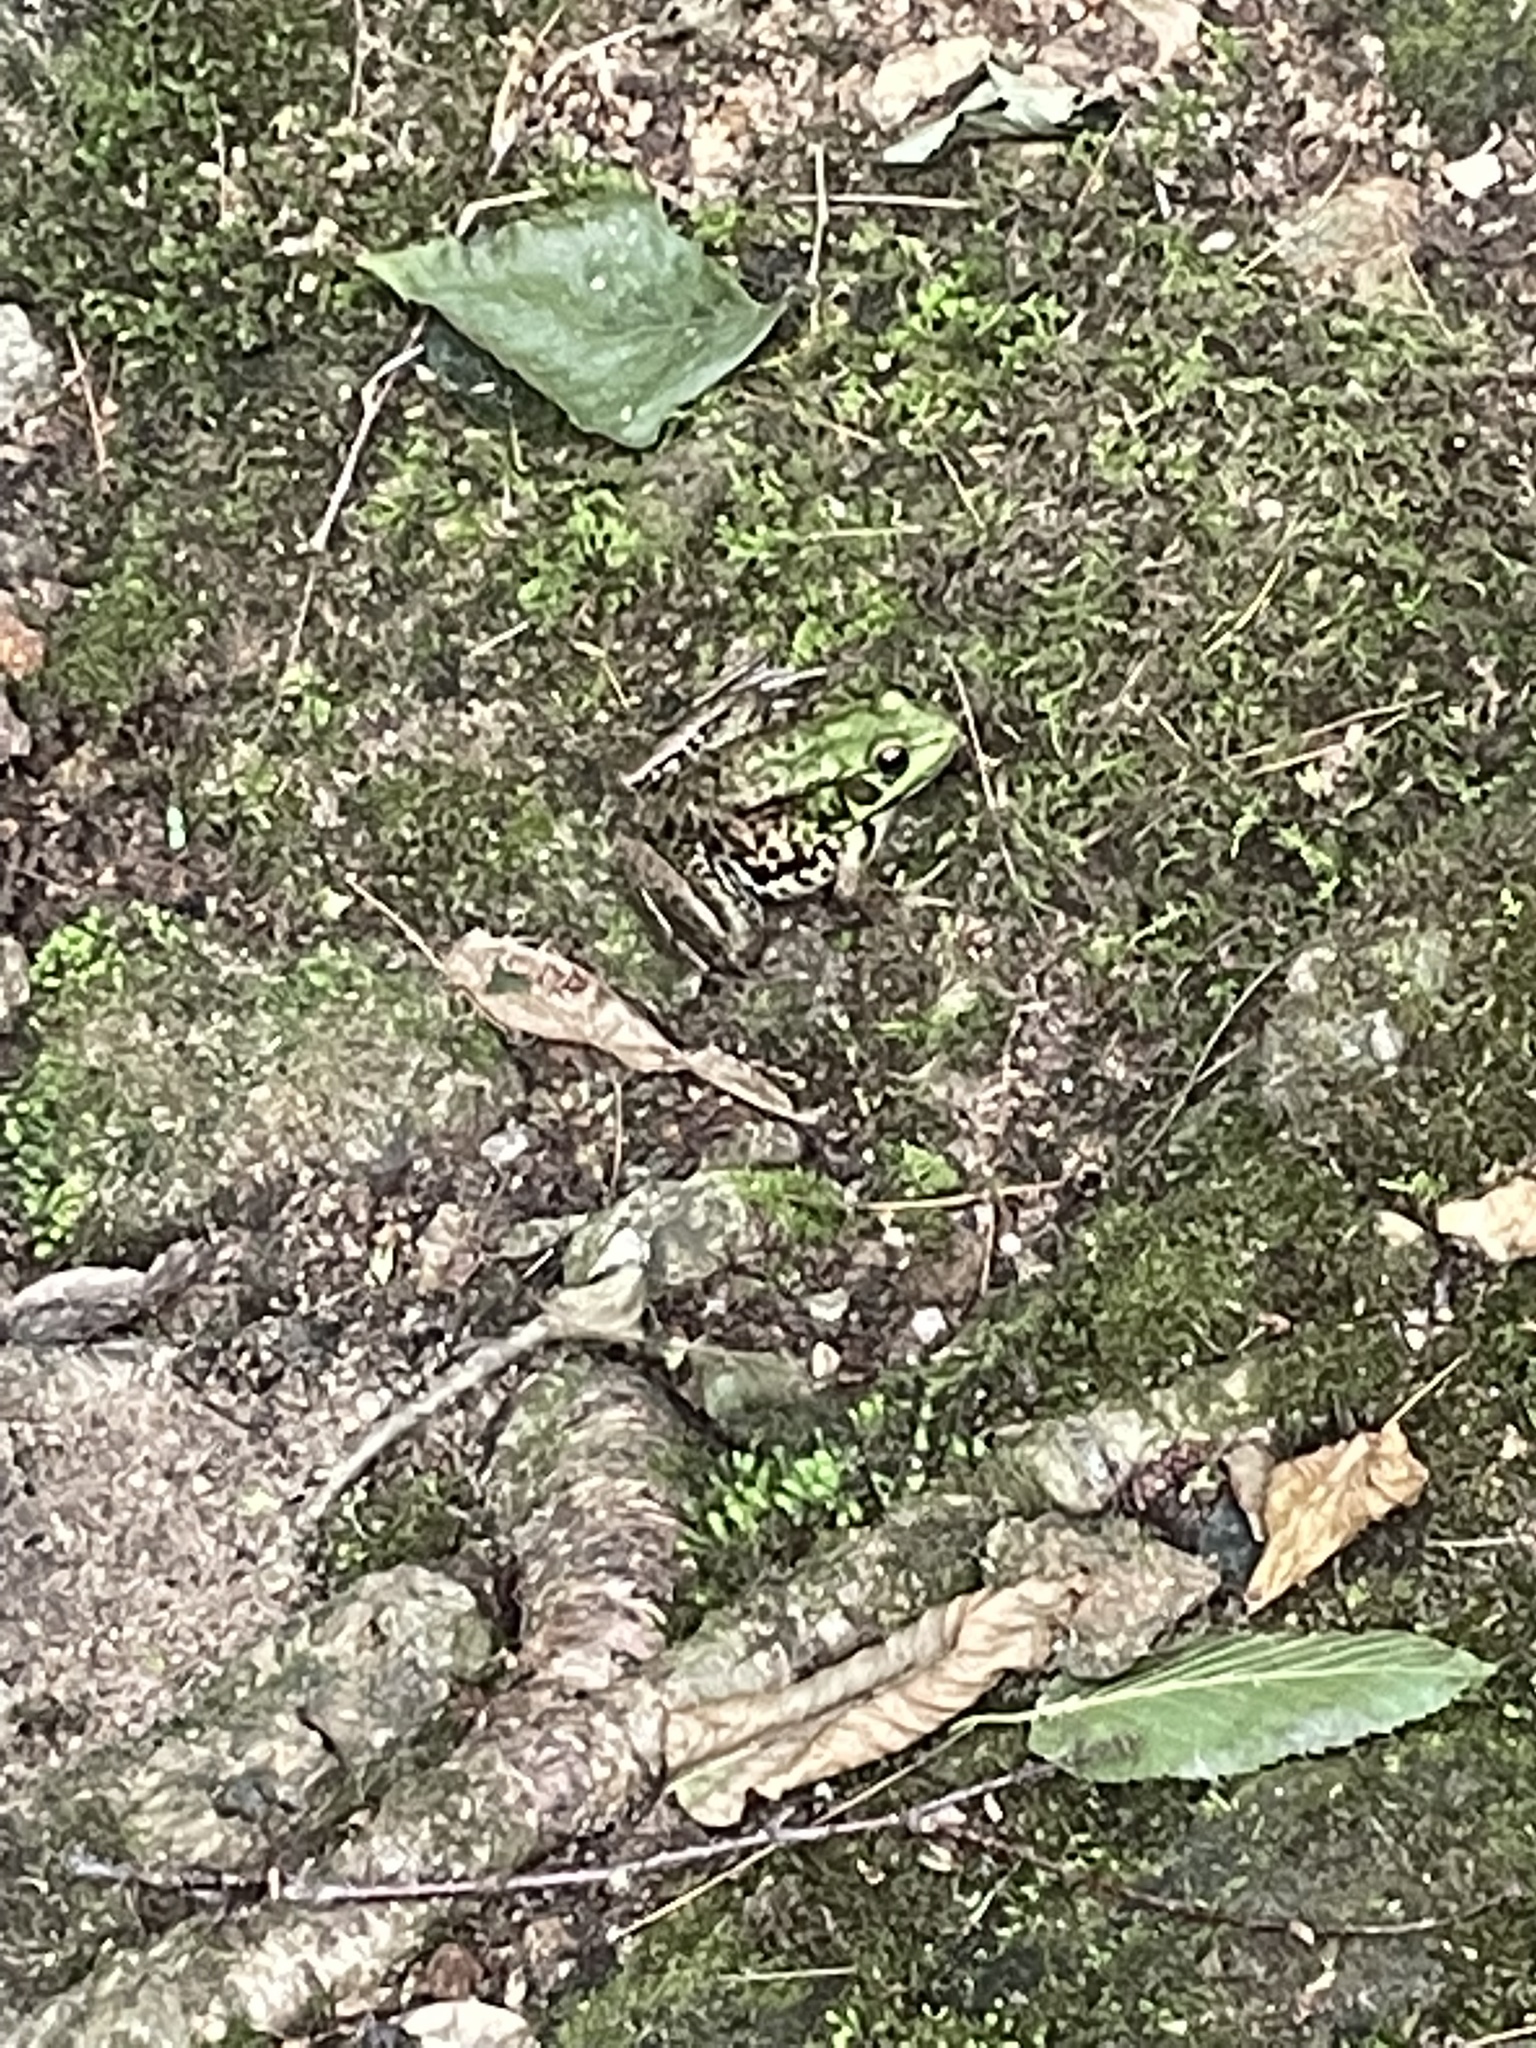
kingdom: Animalia
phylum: Chordata
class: Amphibia
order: Anura
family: Ranidae
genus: Lithobates
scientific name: Lithobates clamitans
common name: Green frog
